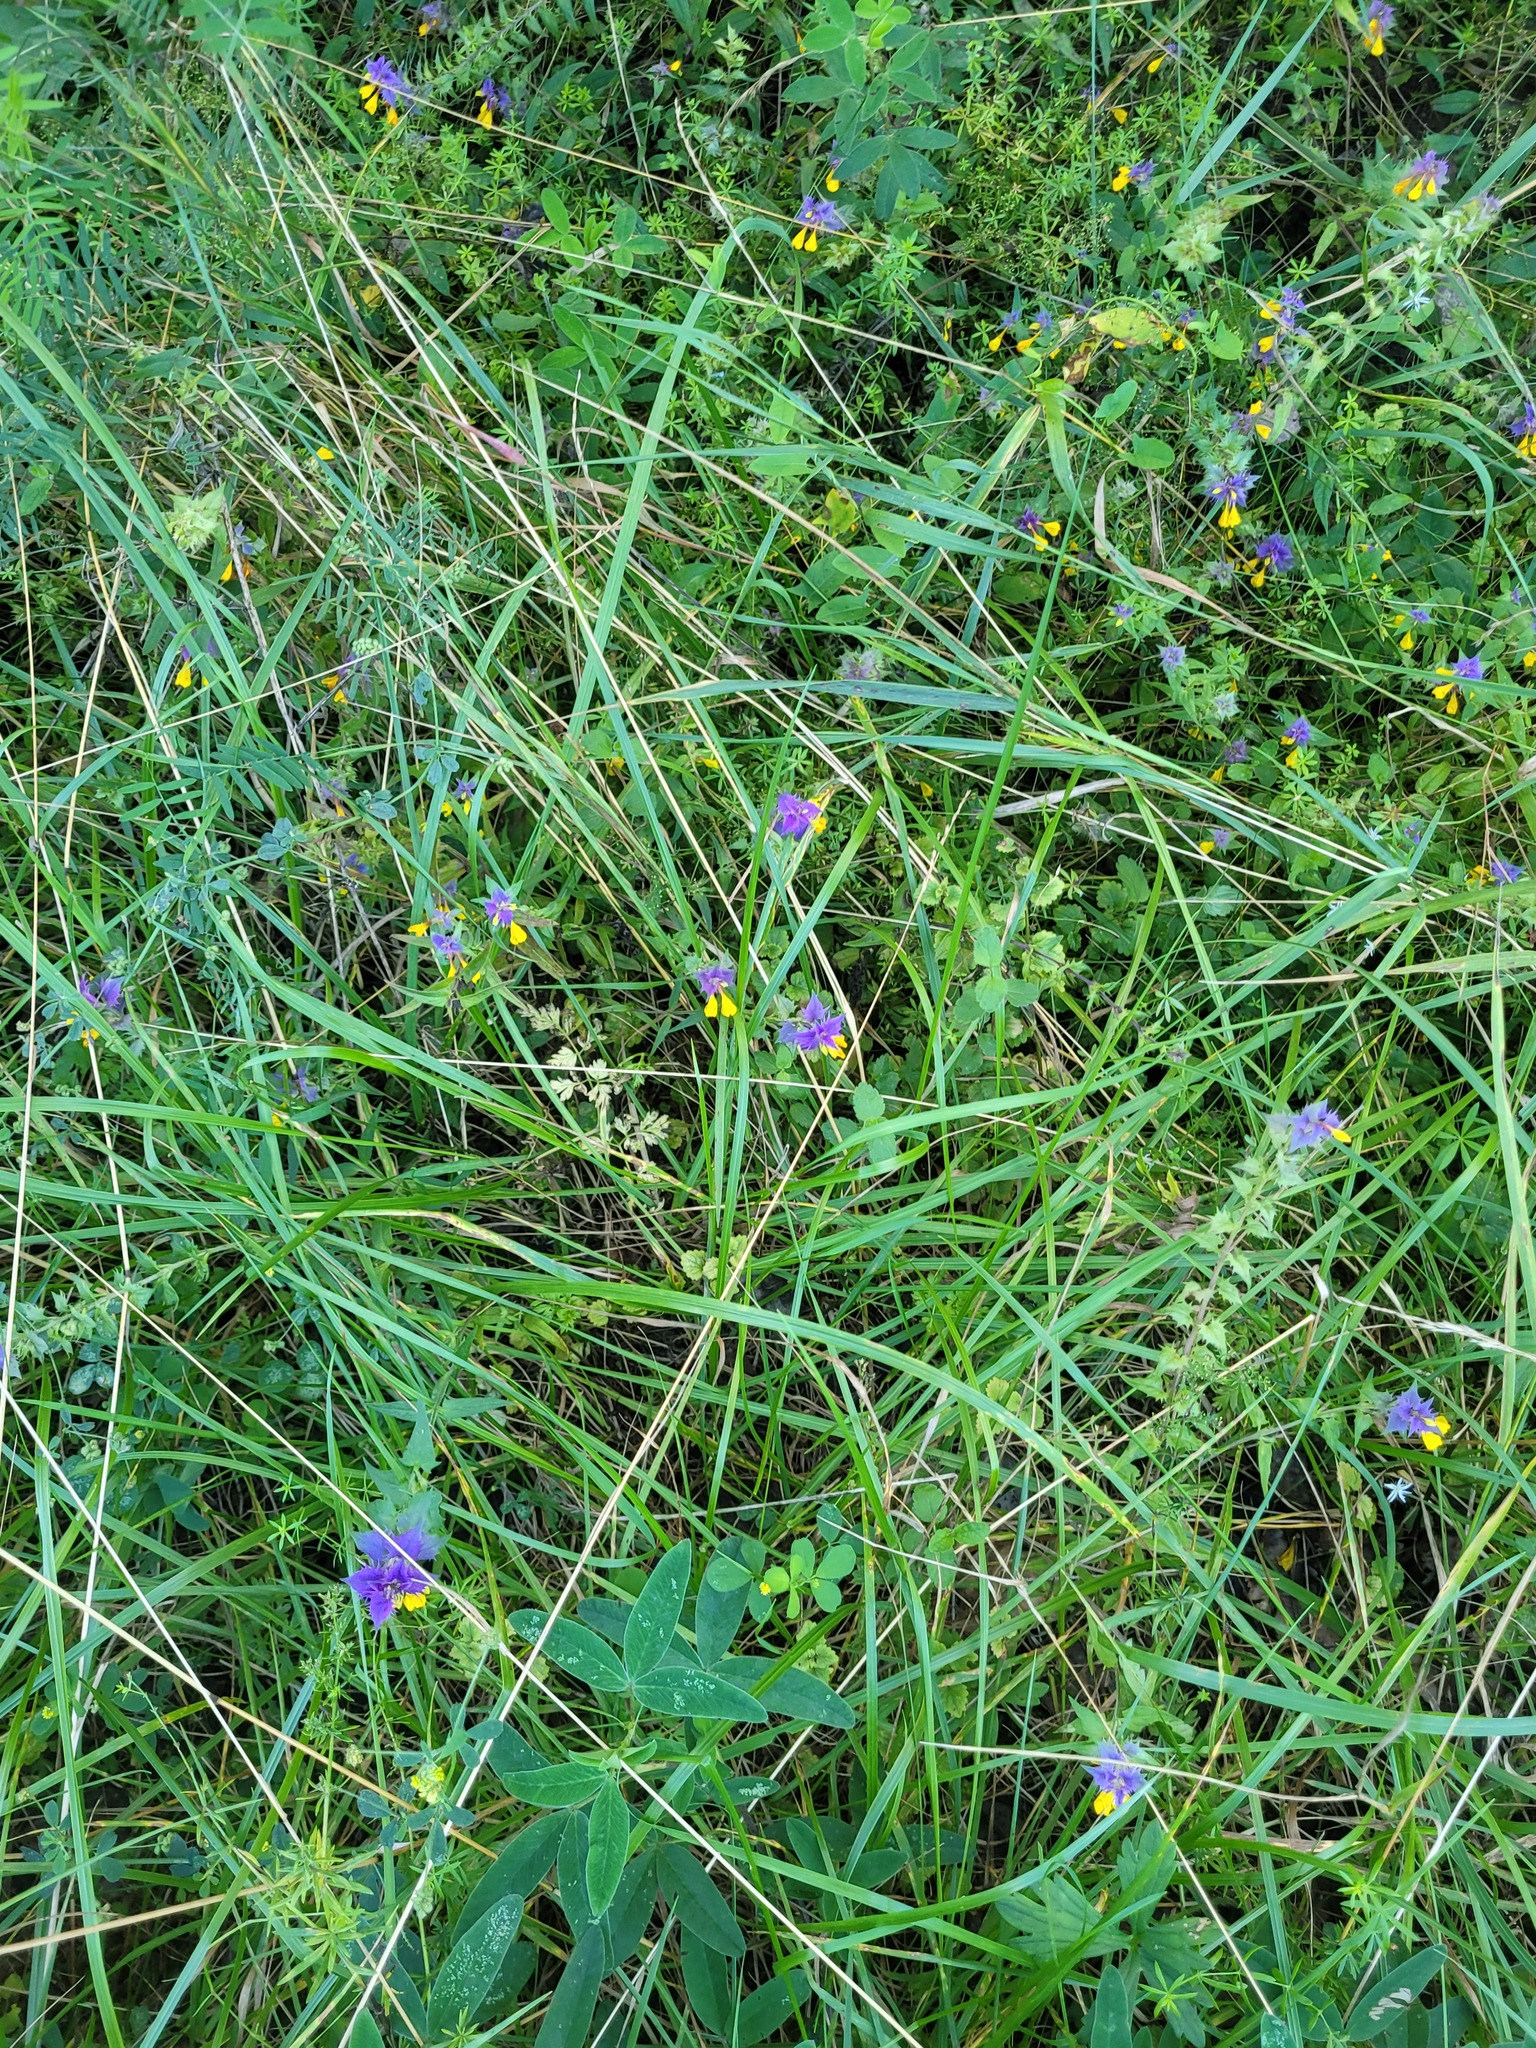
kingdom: Plantae
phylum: Tracheophyta
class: Magnoliopsida
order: Lamiales
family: Orobanchaceae
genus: Melampyrum
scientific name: Melampyrum nemorosum
